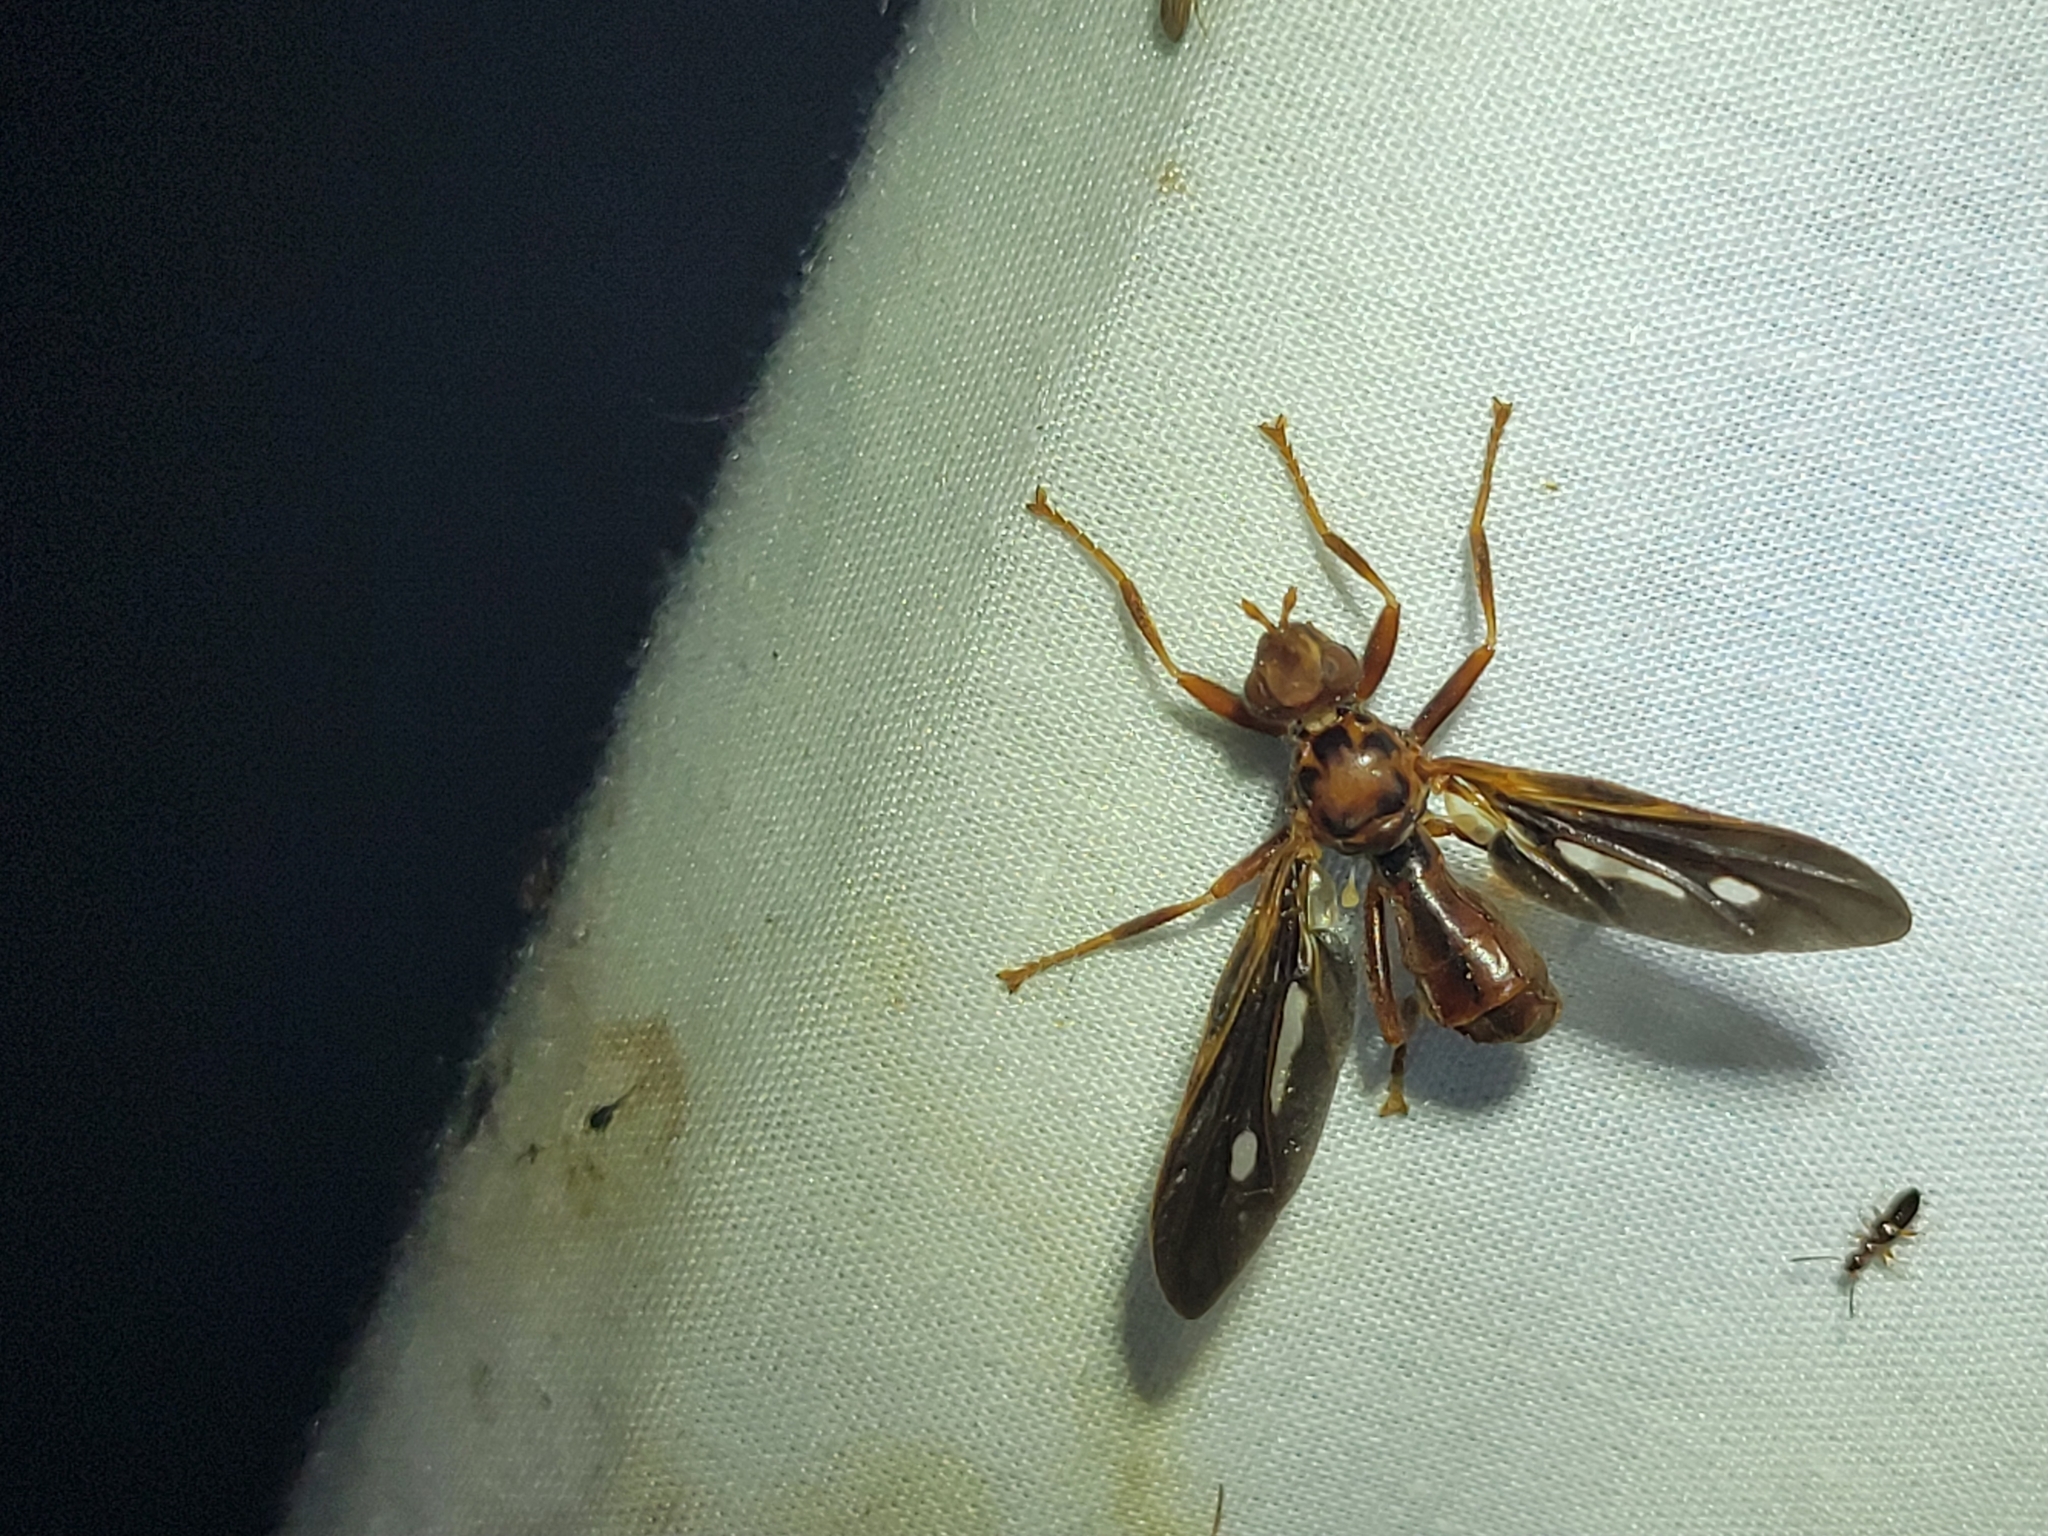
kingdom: Animalia
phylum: Arthropoda
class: Insecta
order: Diptera
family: Pyrgotidae
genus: Pyrgota
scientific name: Pyrgota fenestrata
